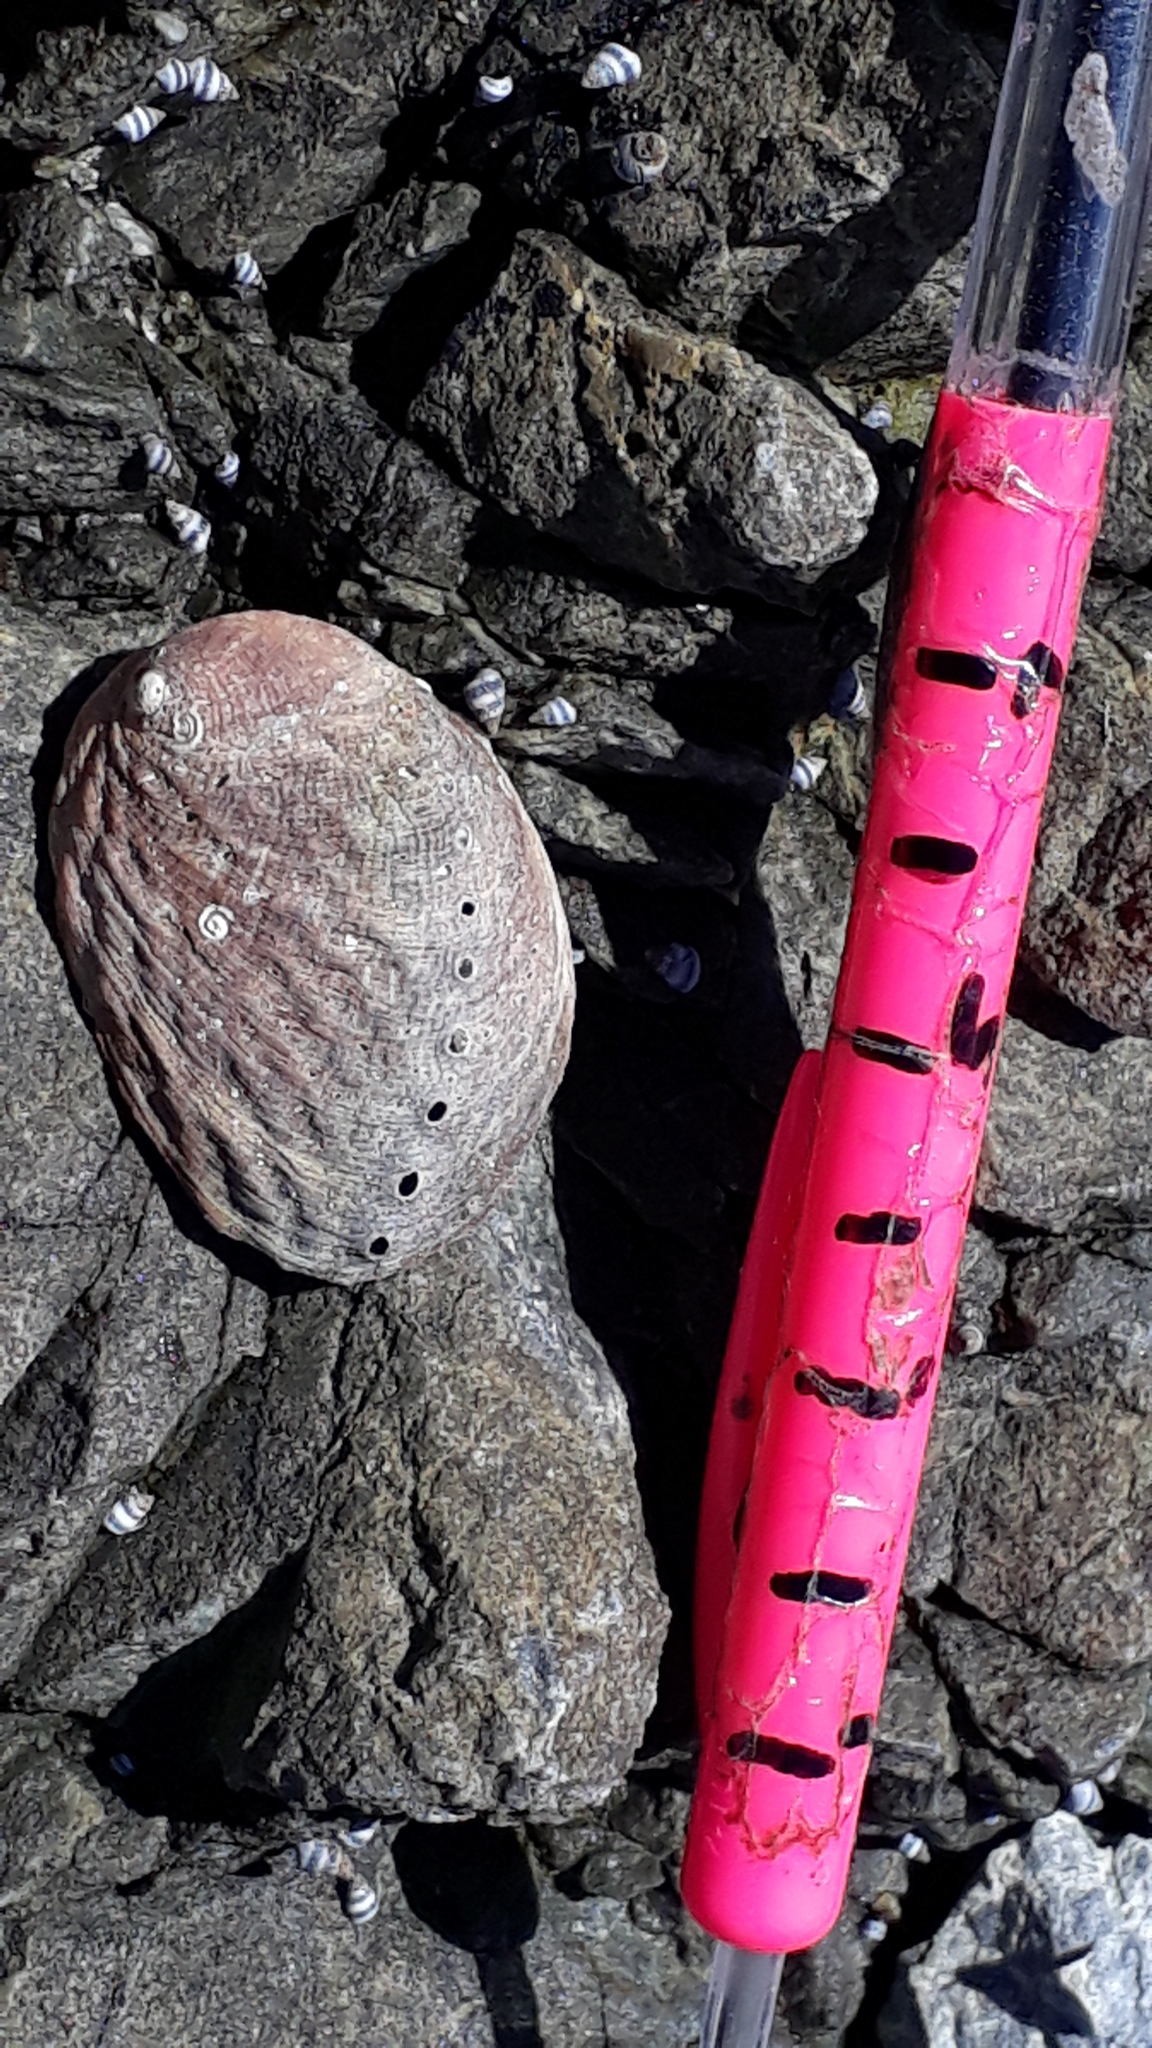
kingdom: Animalia
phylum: Mollusca
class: Gastropoda
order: Lepetellida
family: Haliotidae
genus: Haliotis
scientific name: Haliotis iris
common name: Abalone
